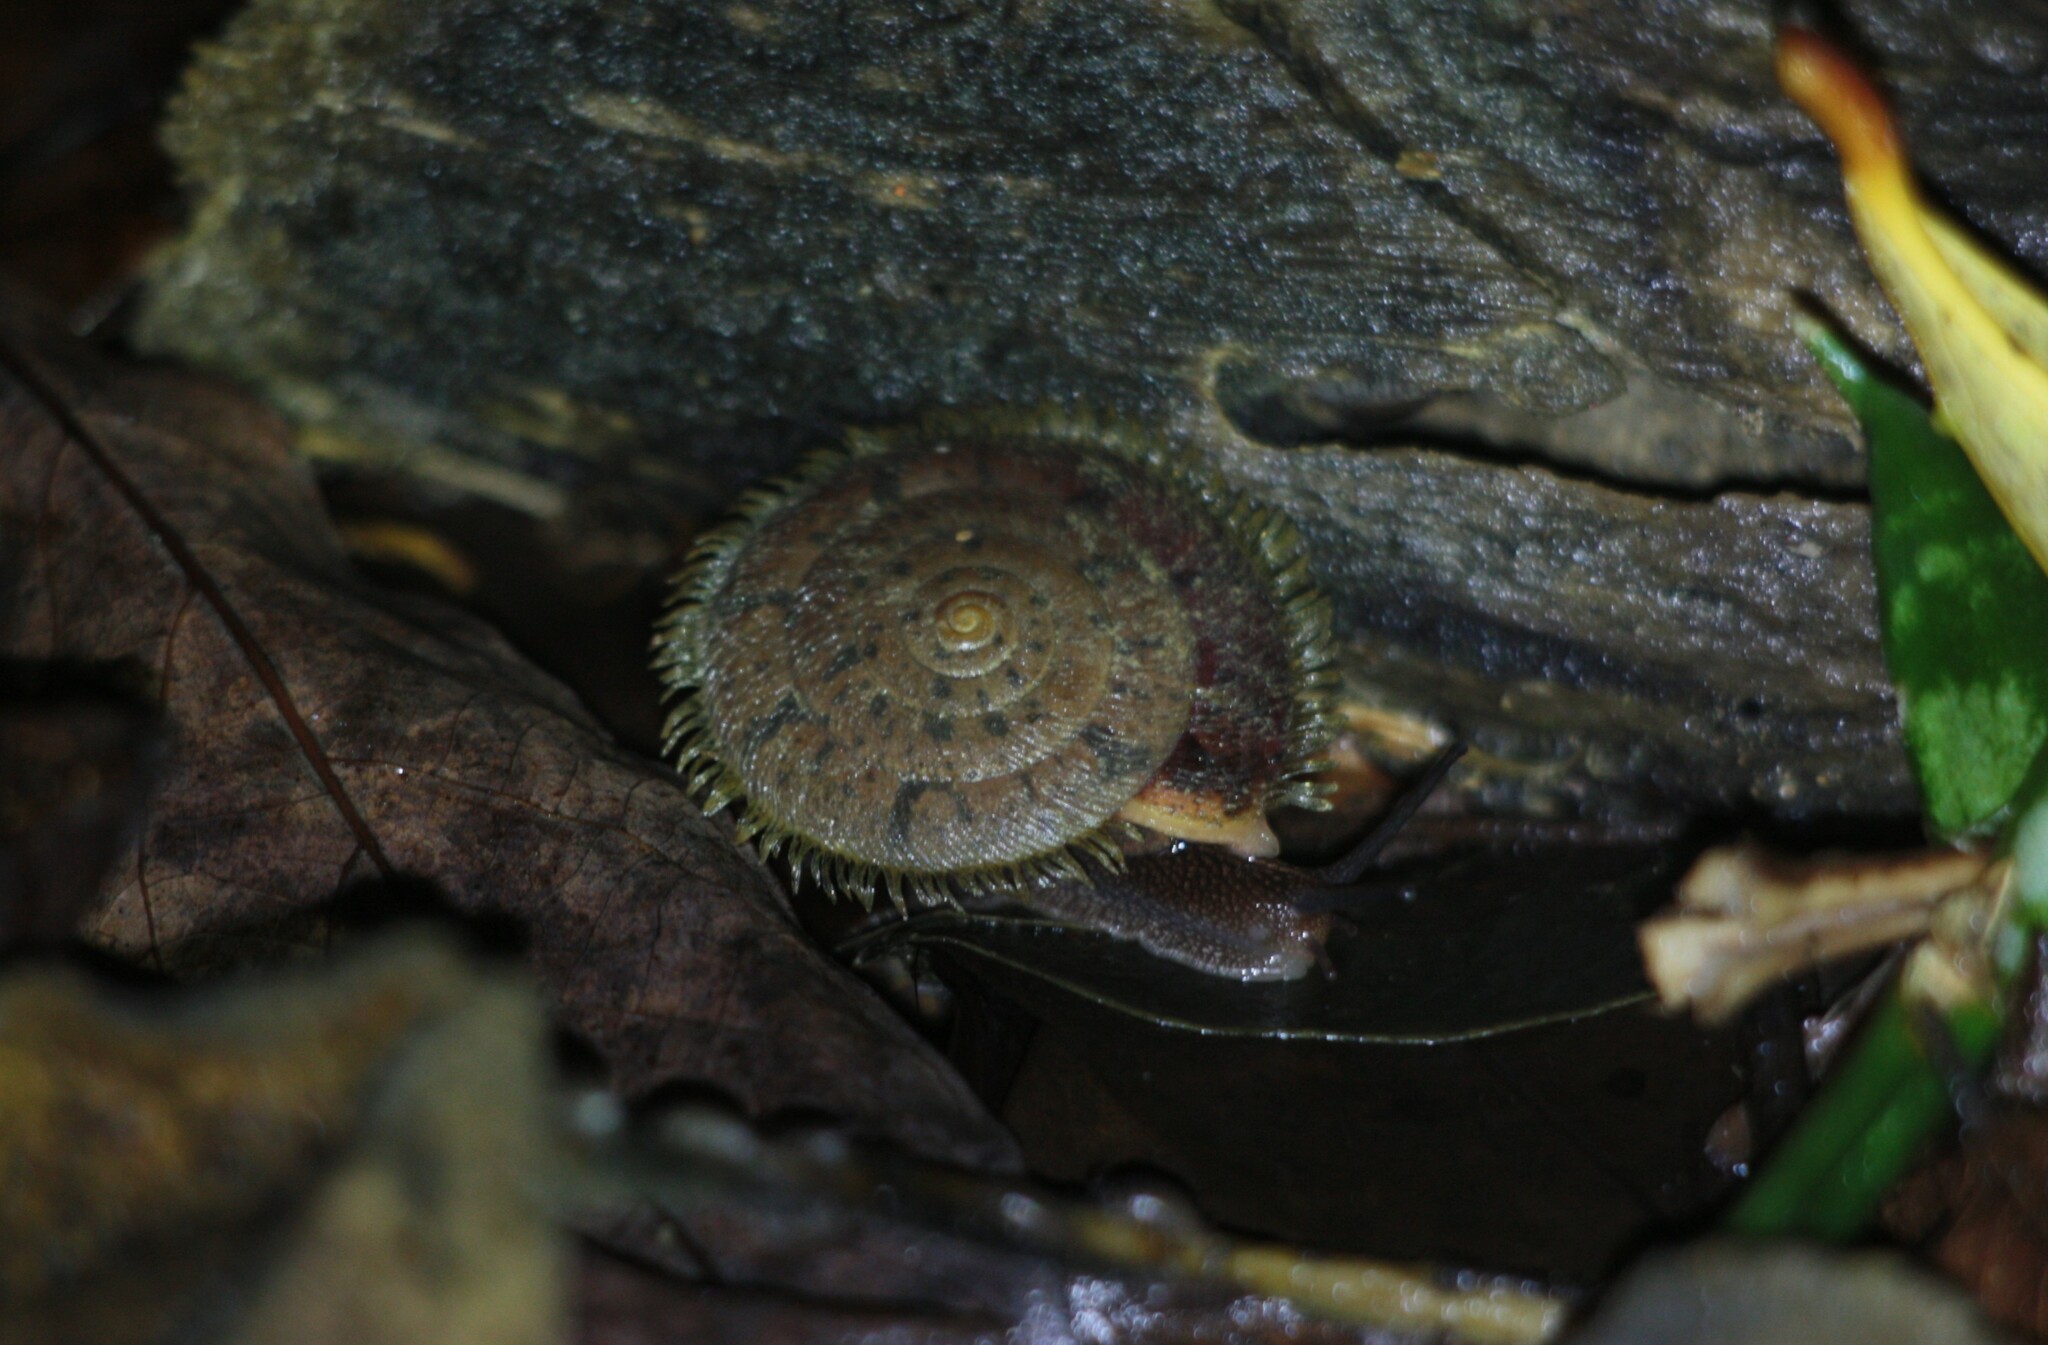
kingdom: Animalia
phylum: Mollusca
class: Gastropoda
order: Stylommatophora
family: Camaenidae
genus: Plectotropis
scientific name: Plectotropis mackensii
